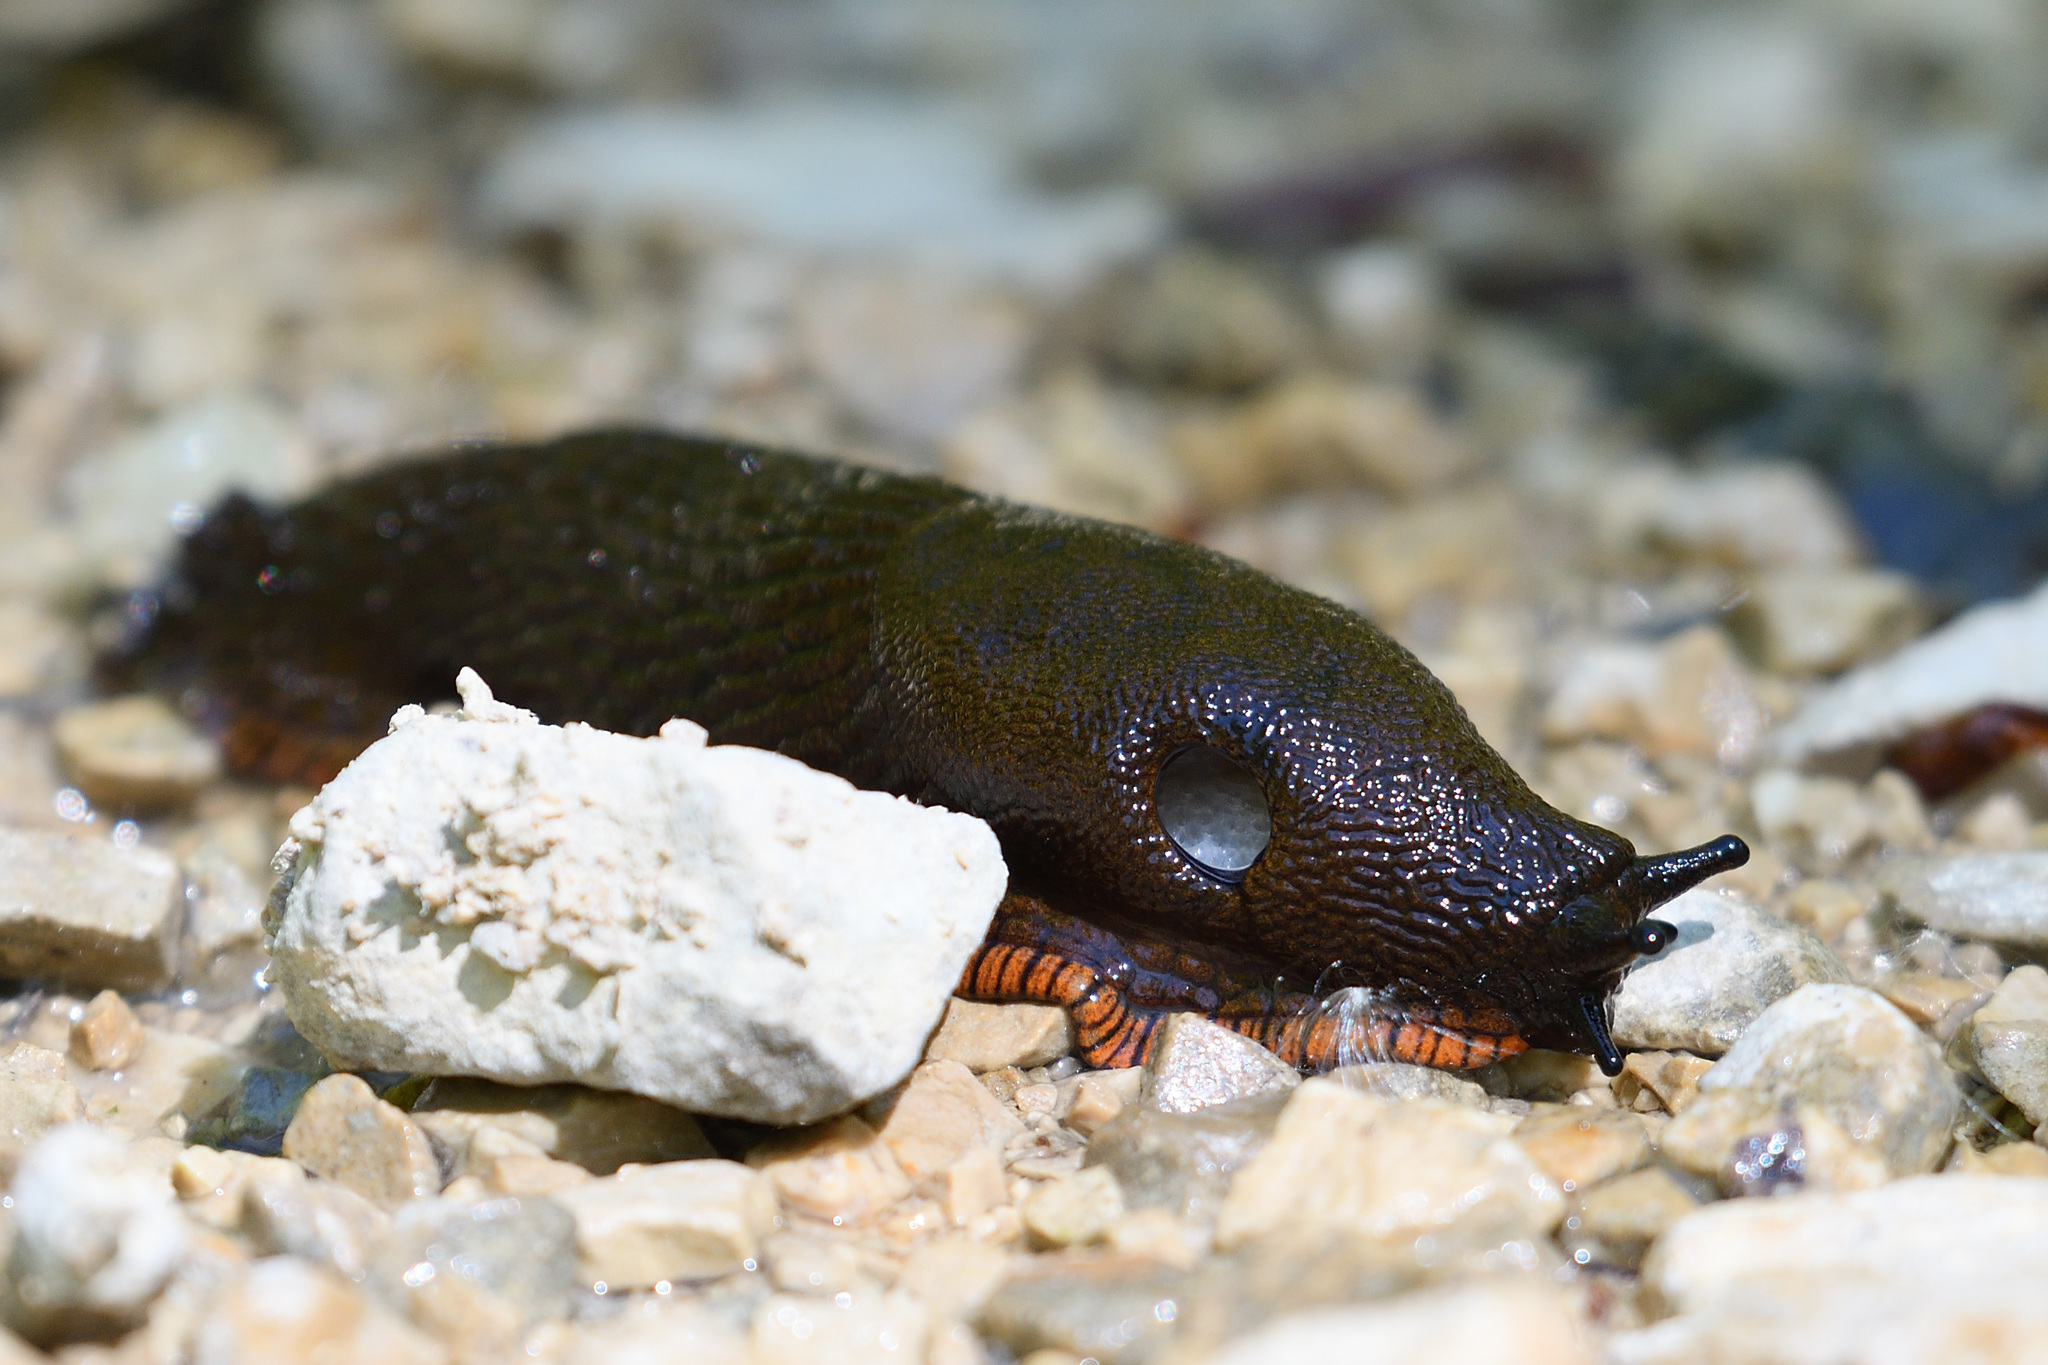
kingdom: Animalia
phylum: Mollusca
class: Gastropoda
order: Stylommatophora
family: Arionidae
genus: Arion
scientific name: Arion rufus
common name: Chocolate arion
